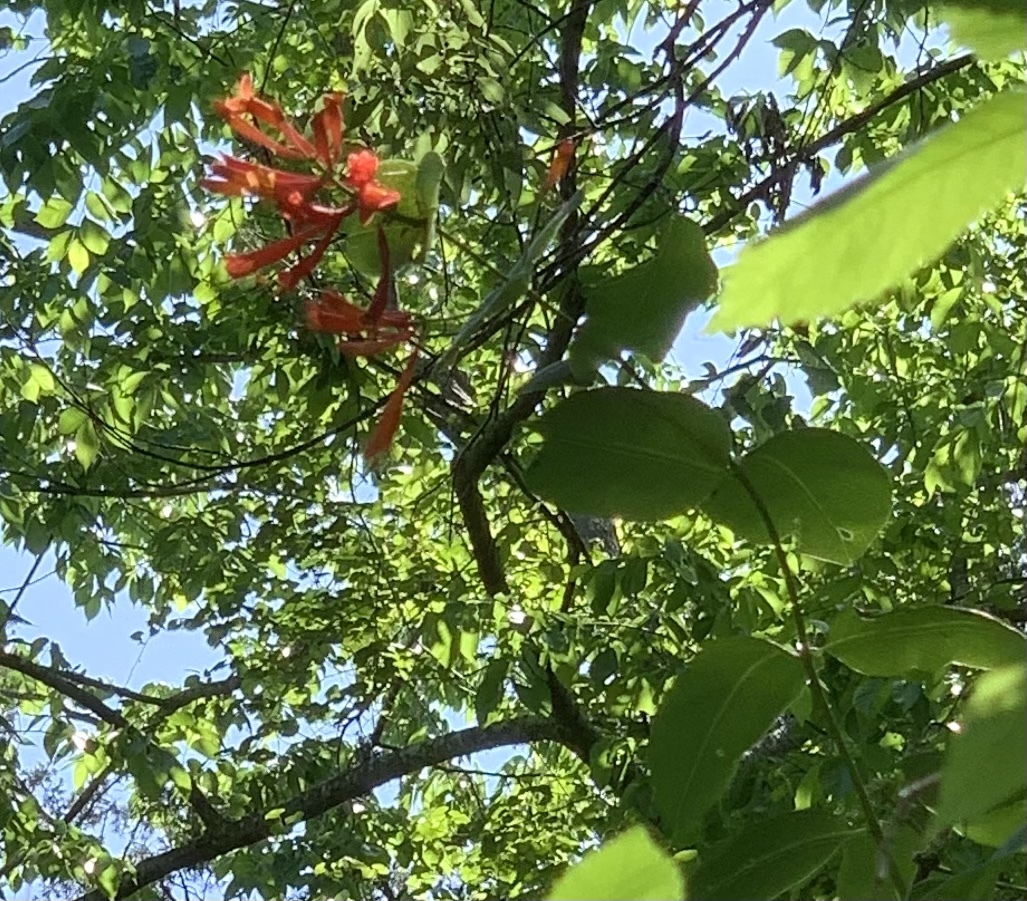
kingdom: Plantae
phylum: Tracheophyta
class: Magnoliopsida
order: Dipsacales
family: Caprifoliaceae
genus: Lonicera
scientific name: Lonicera sempervirens
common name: Coral honeysuckle
